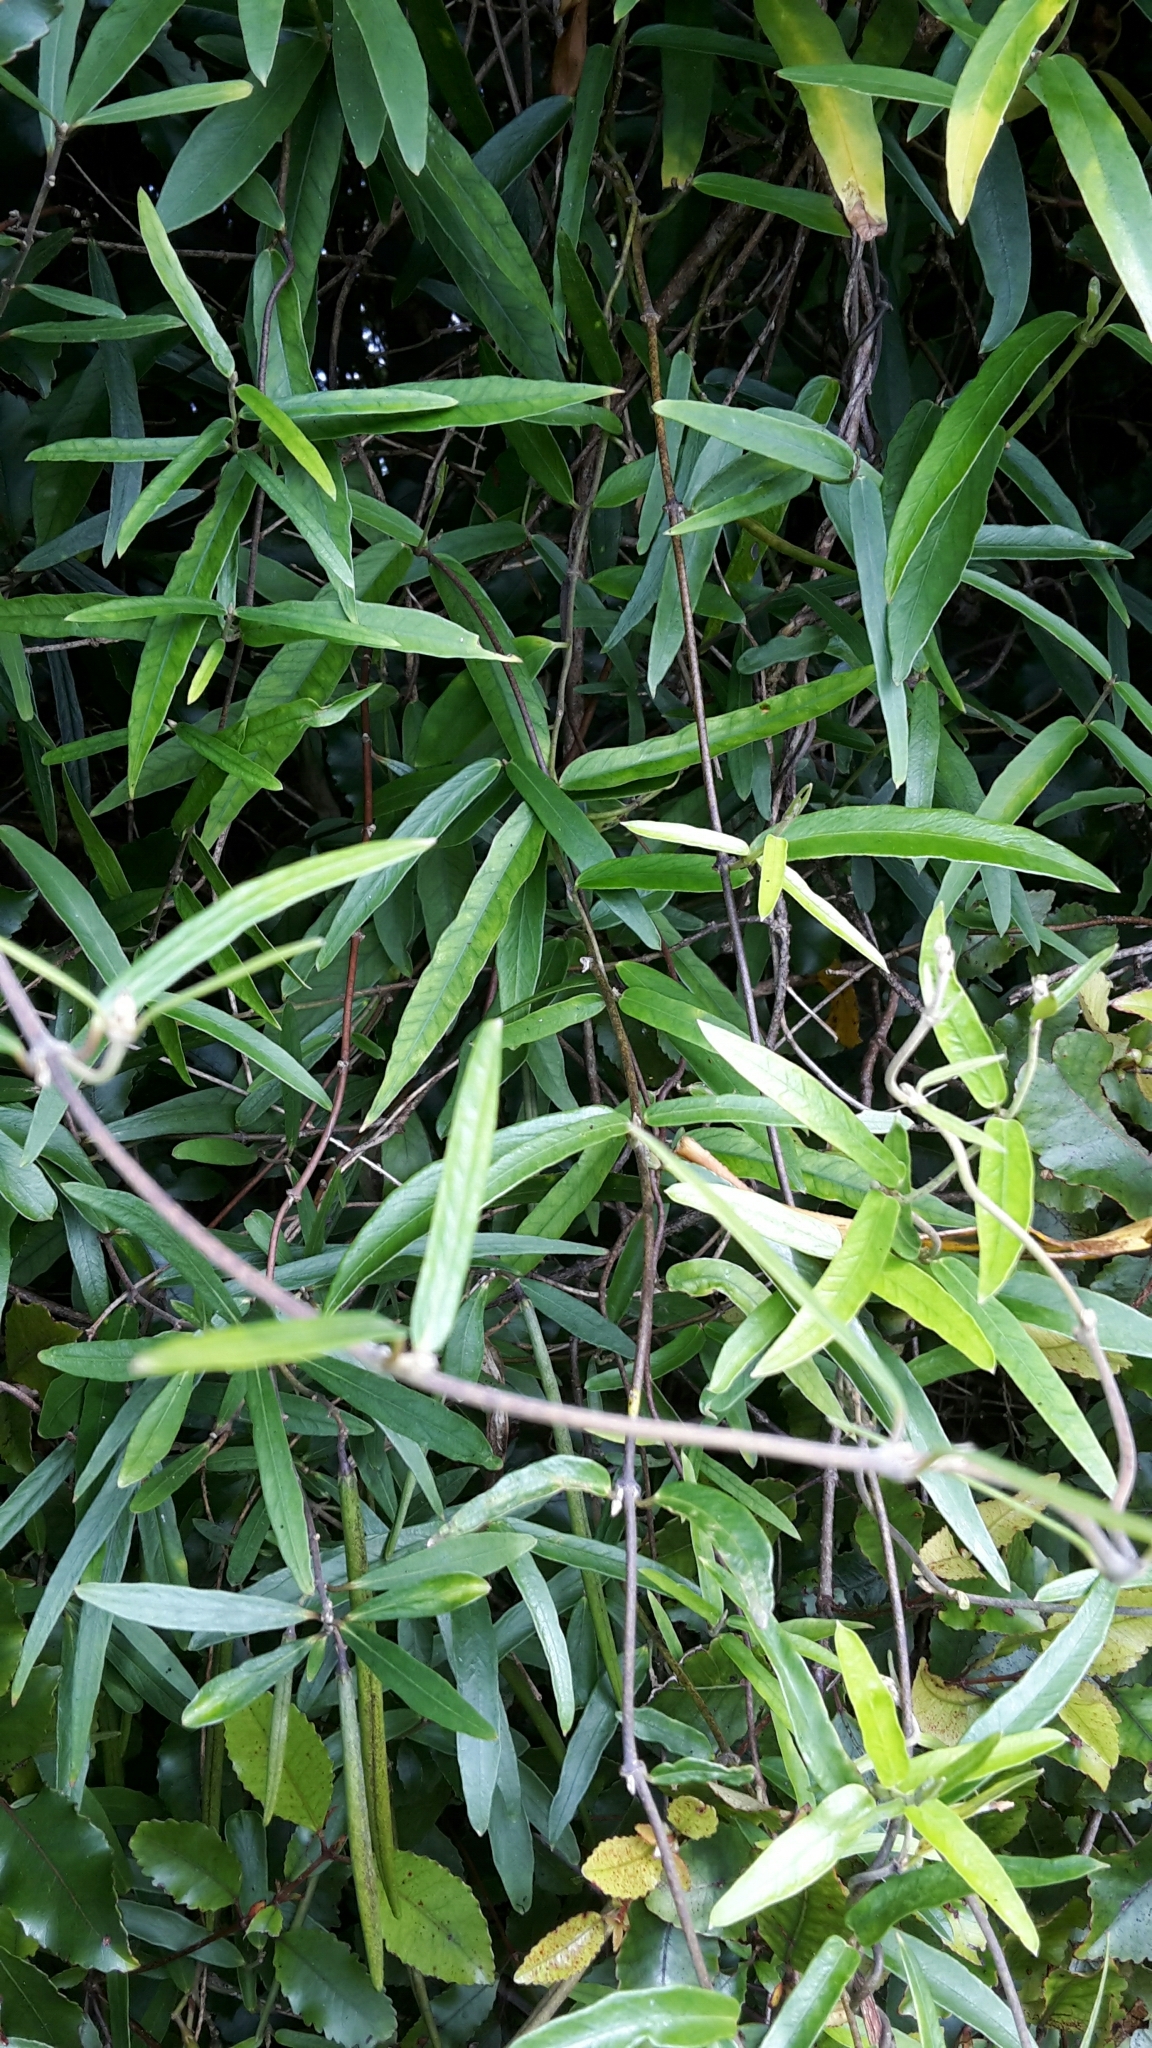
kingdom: Plantae
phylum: Tracheophyta
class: Magnoliopsida
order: Gentianales
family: Apocynaceae
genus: Parsonsia
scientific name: Parsonsia capsularis
